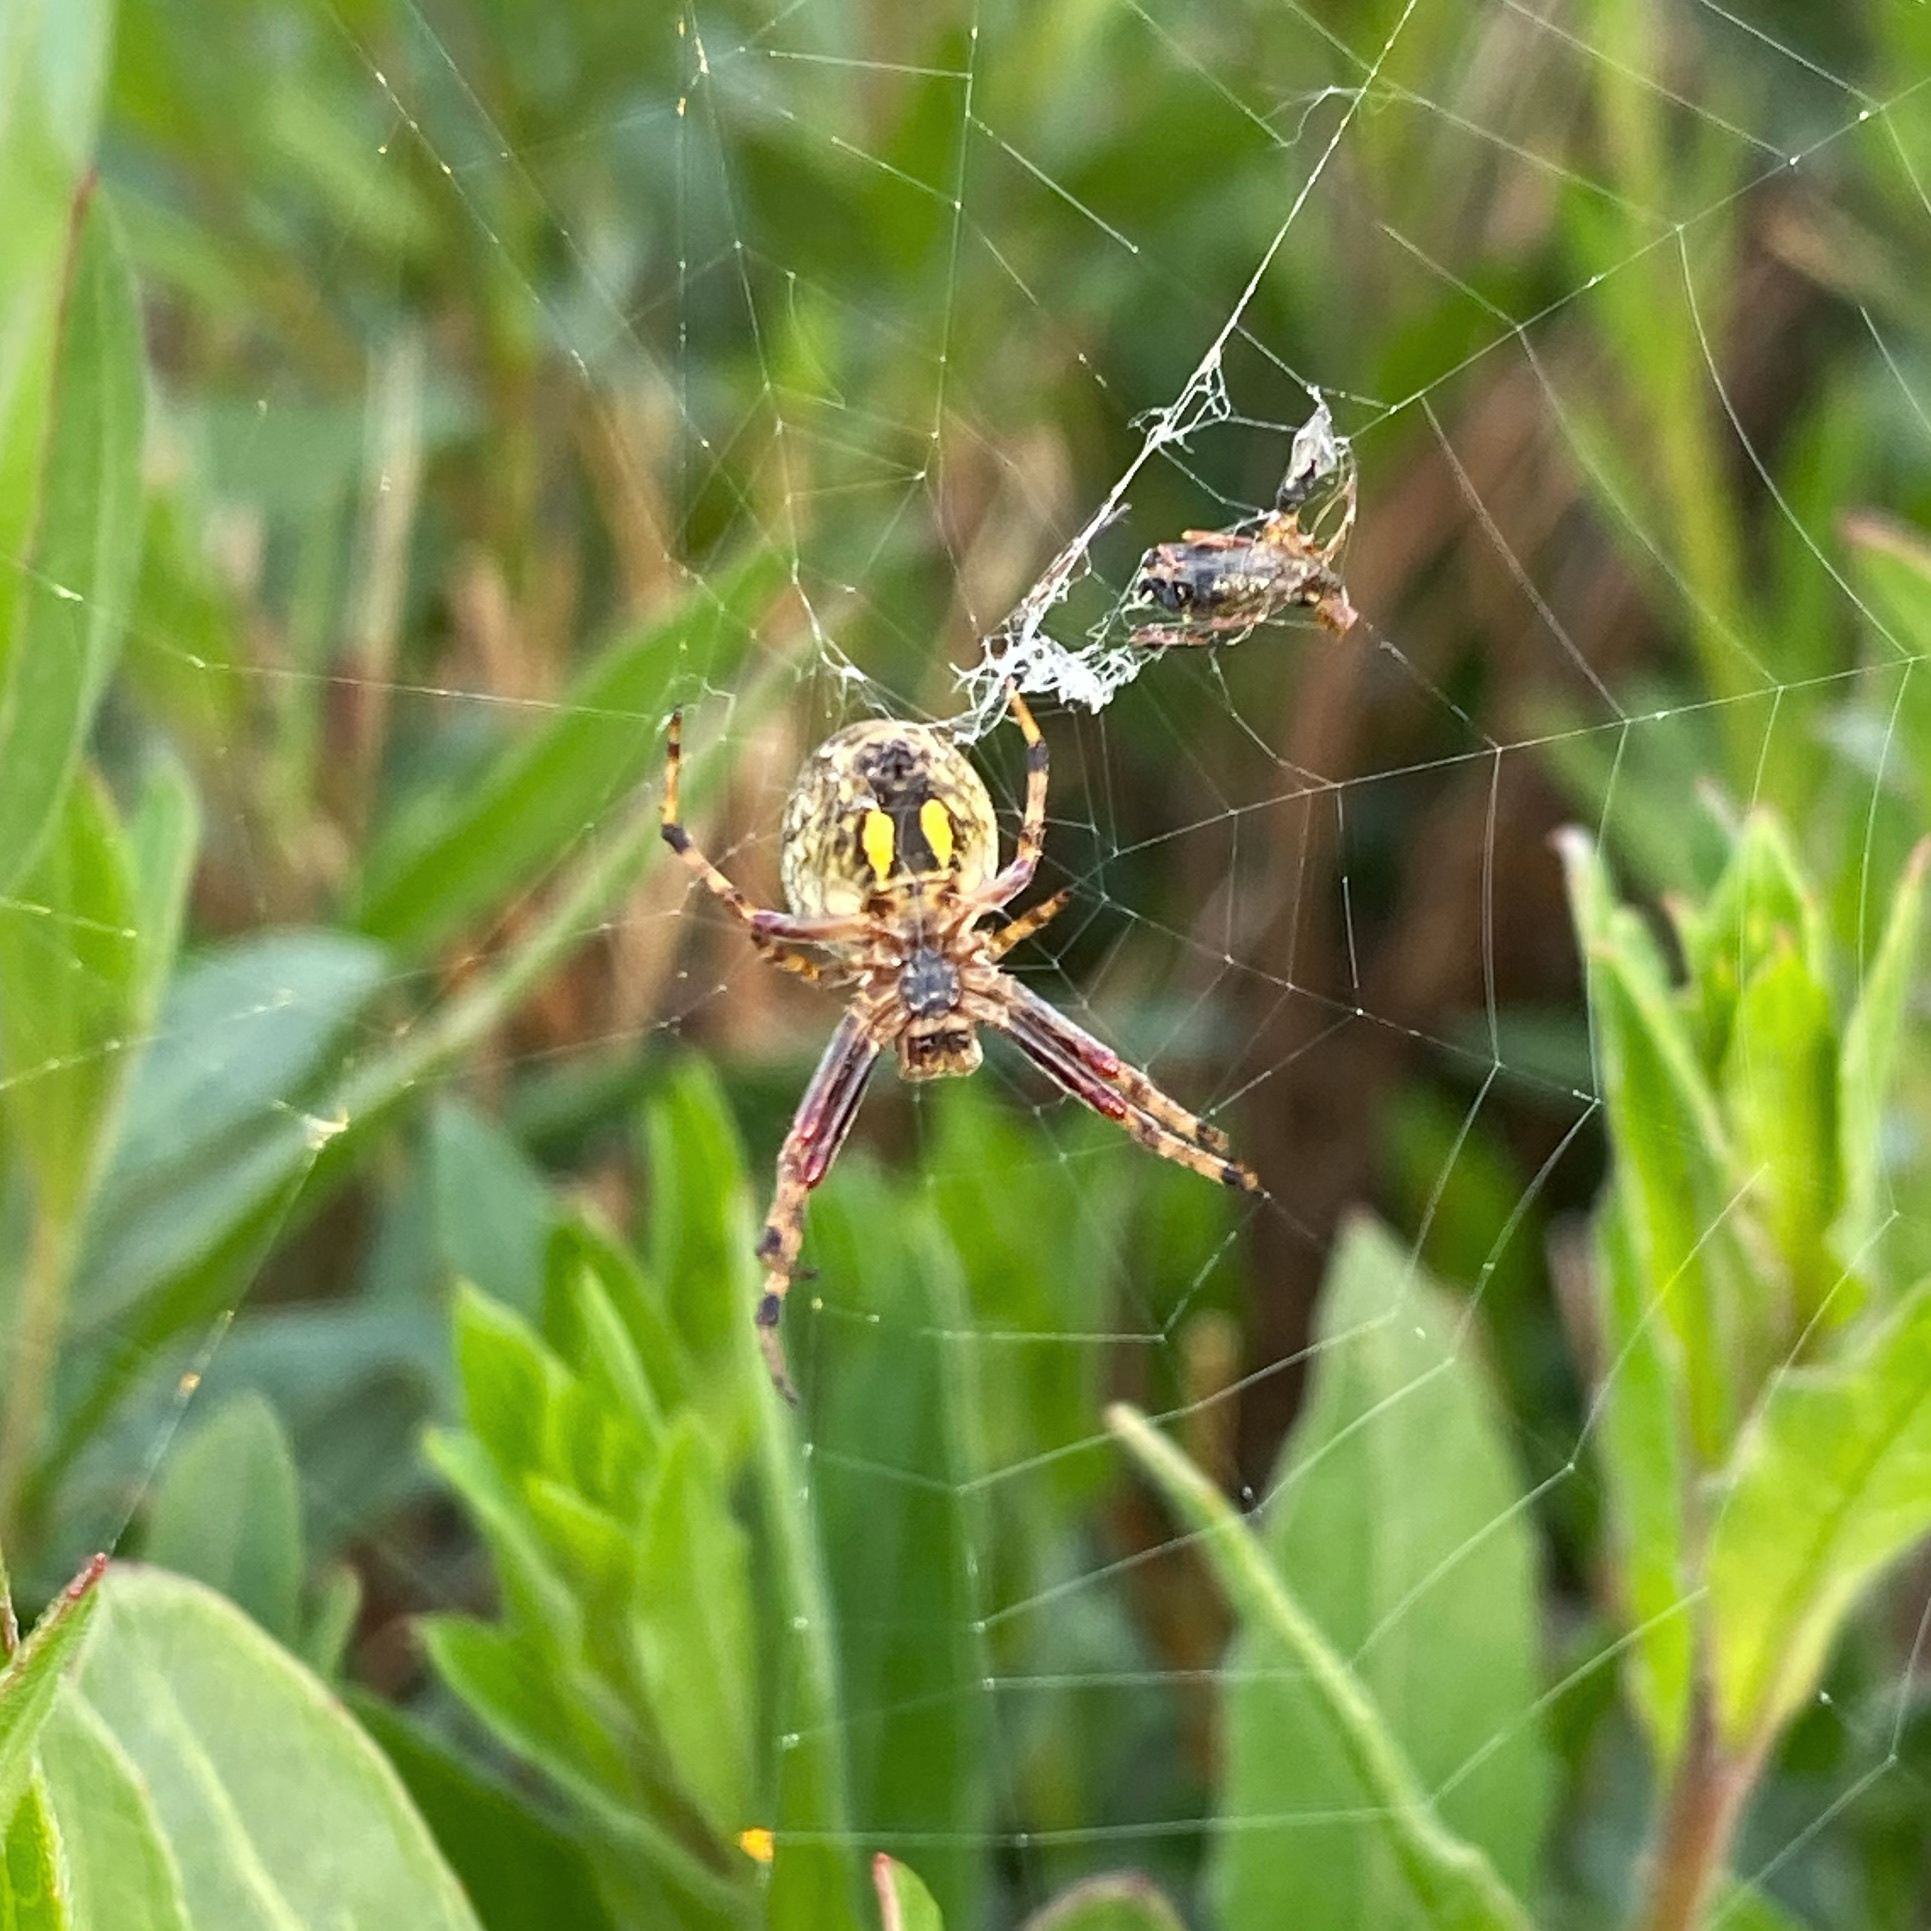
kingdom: Animalia
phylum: Arthropoda
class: Arachnida
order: Araneae
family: Araneidae
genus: Salsa
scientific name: Salsa fuliginata
